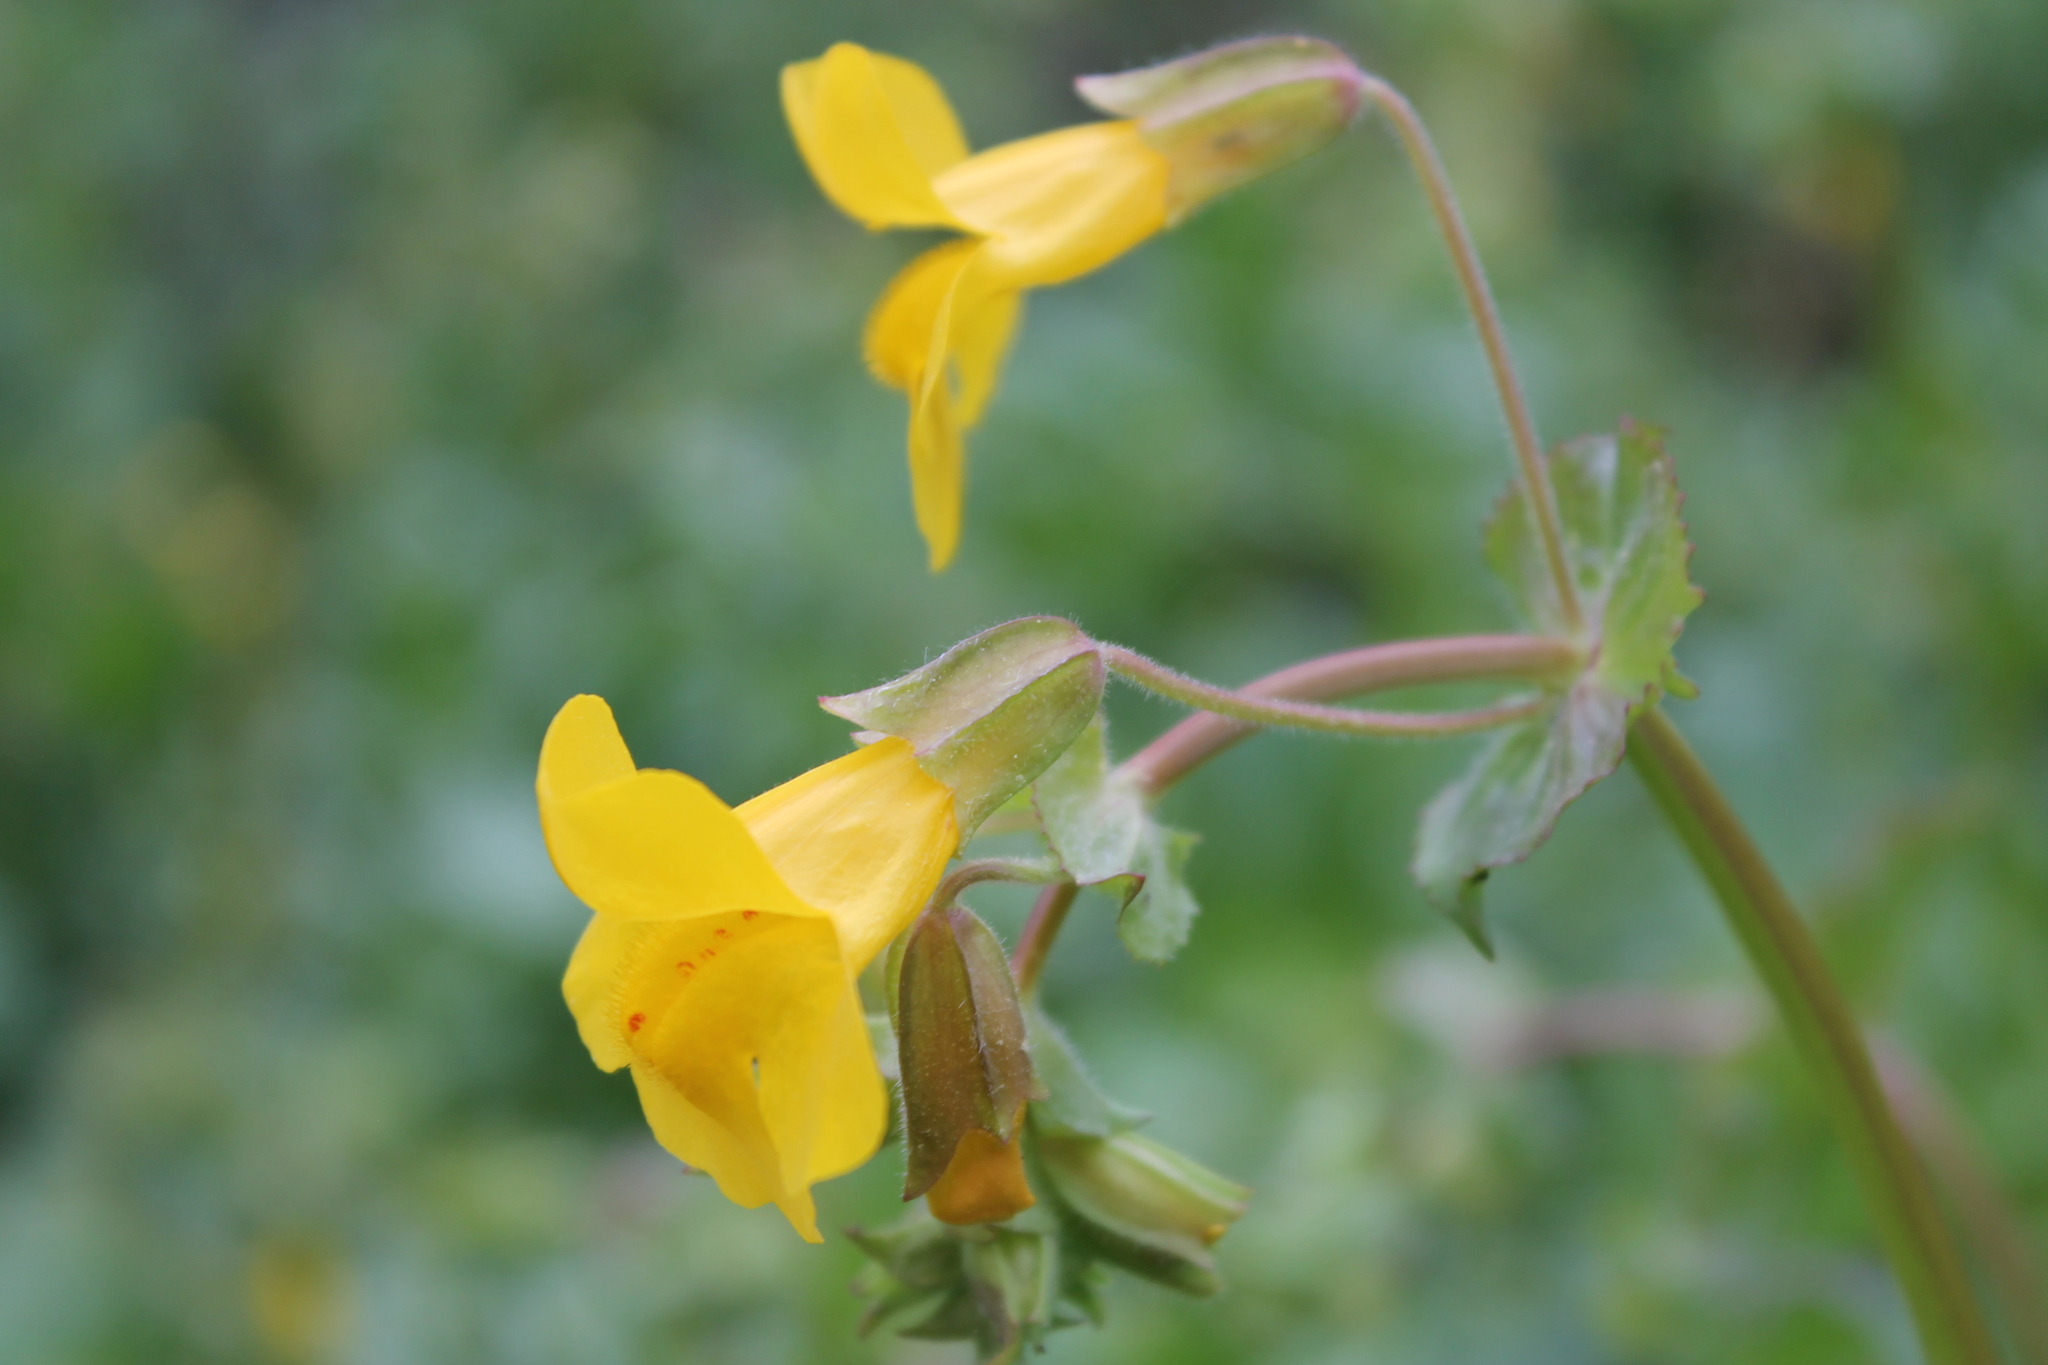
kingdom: Plantae
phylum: Tracheophyta
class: Magnoliopsida
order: Lamiales
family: Phrymaceae
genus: Erythranthe
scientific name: Erythranthe guttata
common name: Monkeyflower
